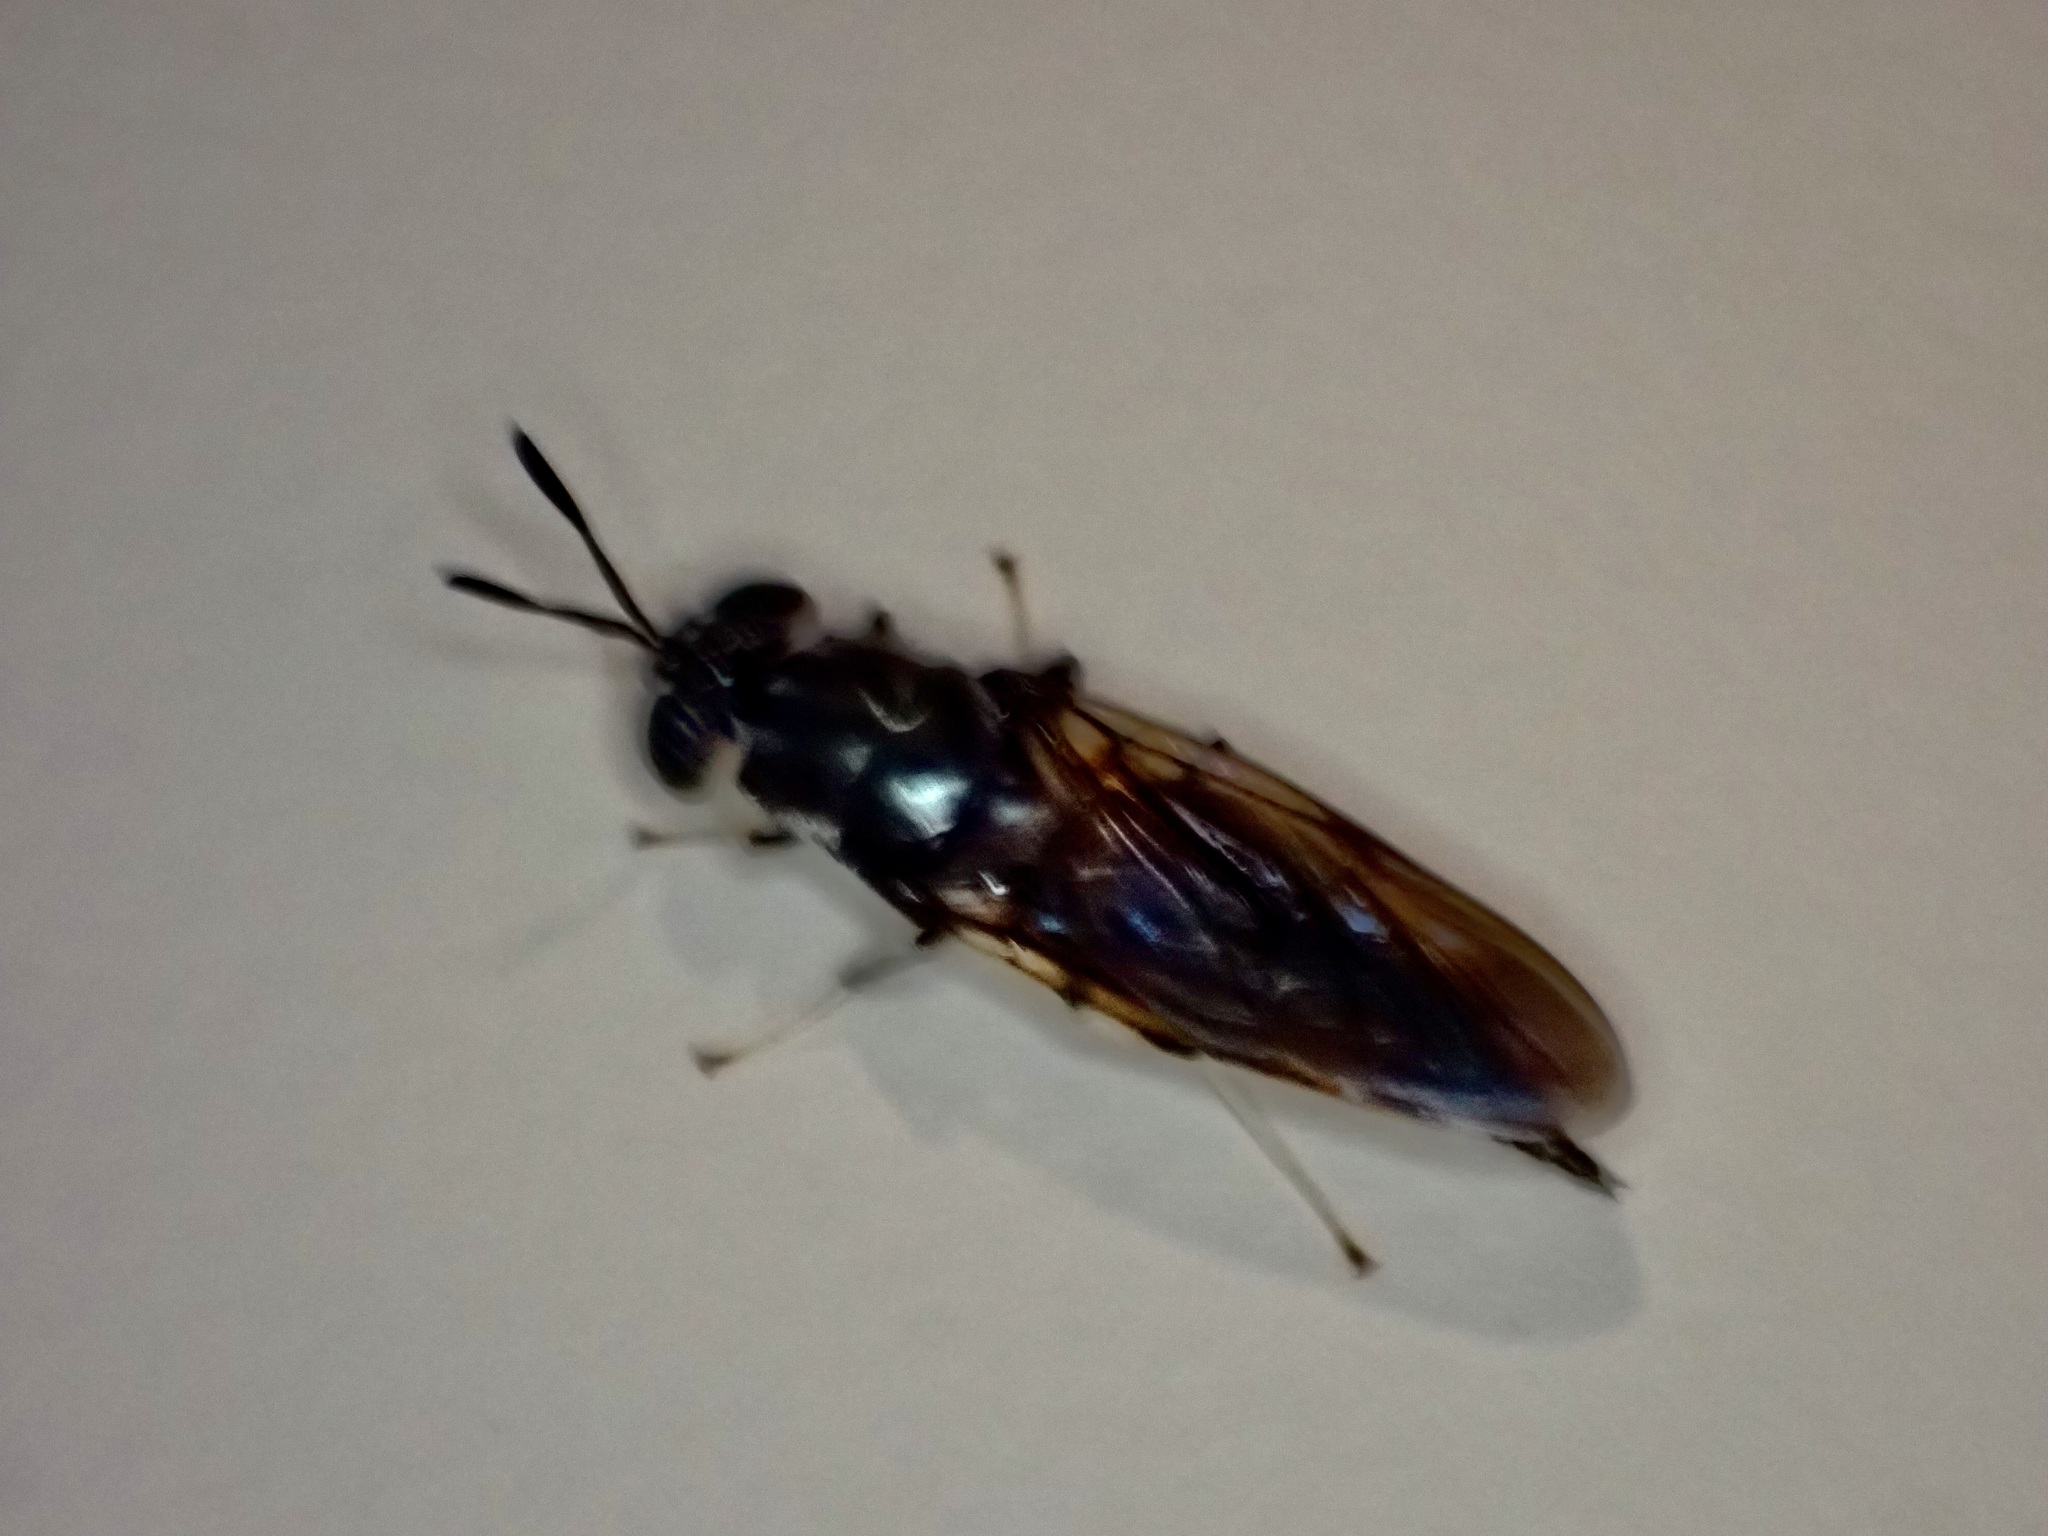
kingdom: Animalia
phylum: Arthropoda
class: Insecta
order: Diptera
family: Stratiomyidae
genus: Hermetia
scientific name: Hermetia illucens
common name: Black soldier fly
